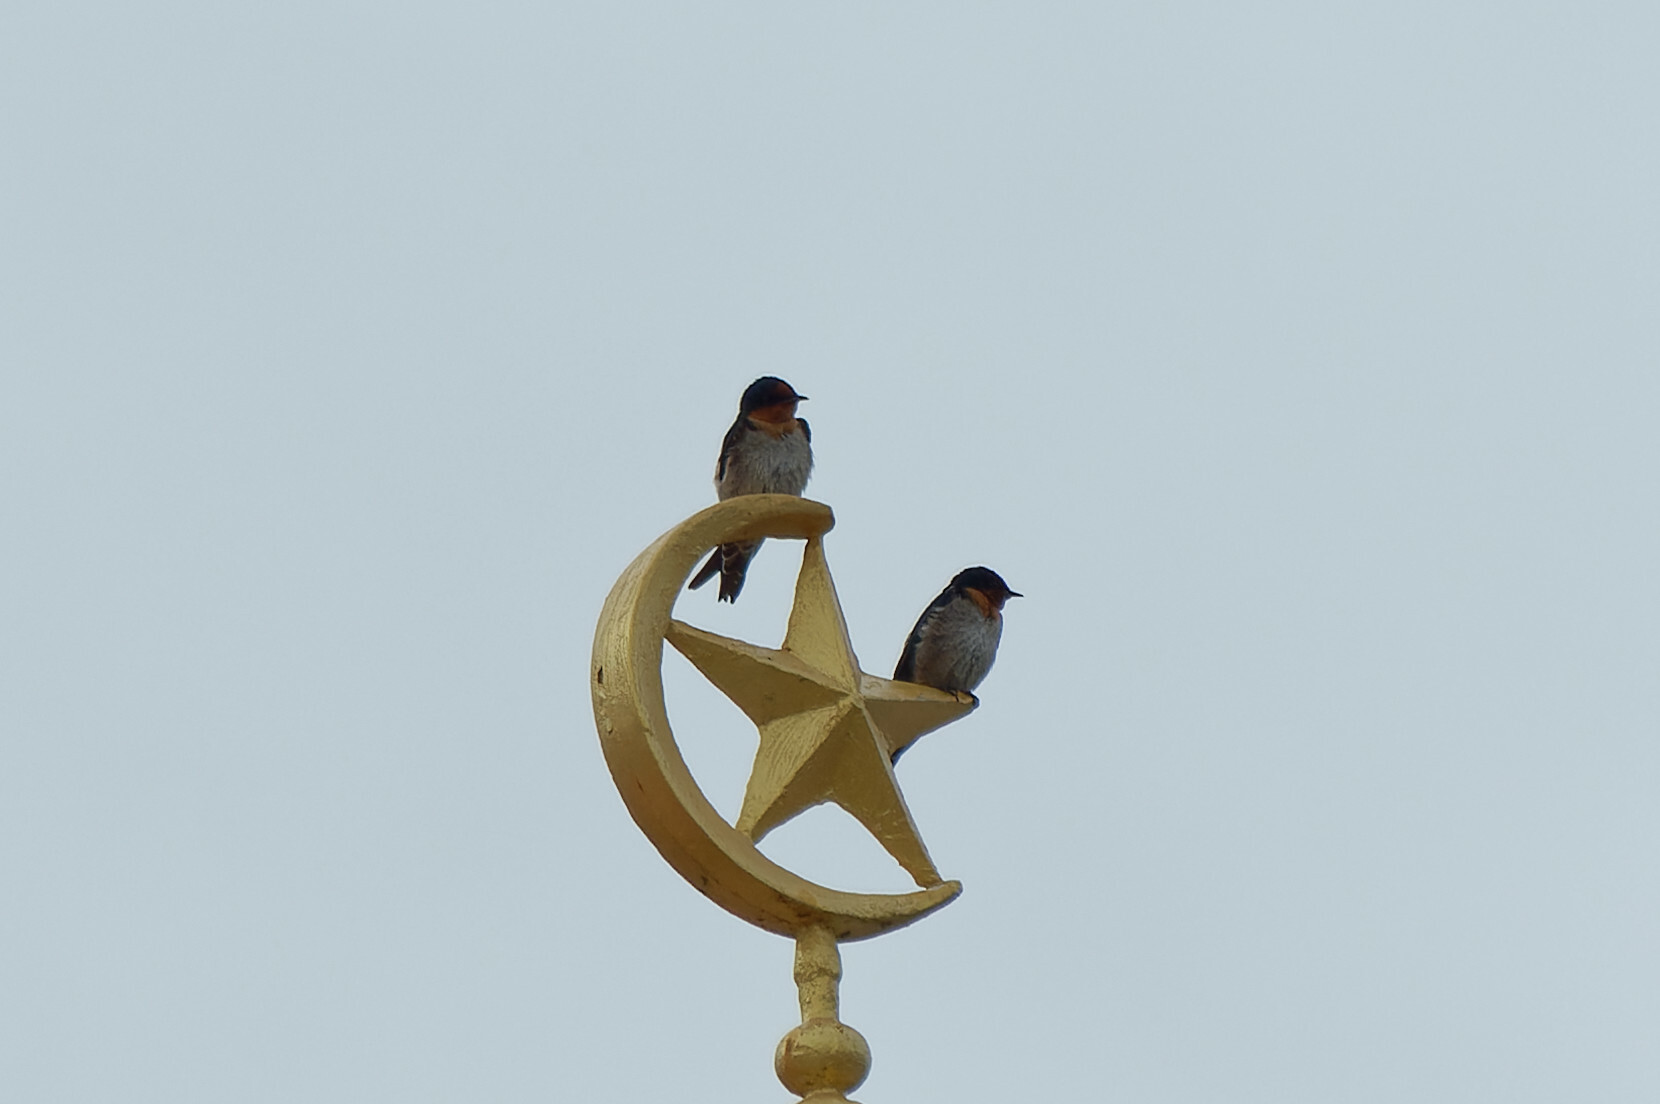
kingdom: Animalia
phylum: Chordata
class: Aves
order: Passeriformes
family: Hirundinidae
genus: Hirundo
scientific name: Hirundo tahitica
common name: Pacific swallow
